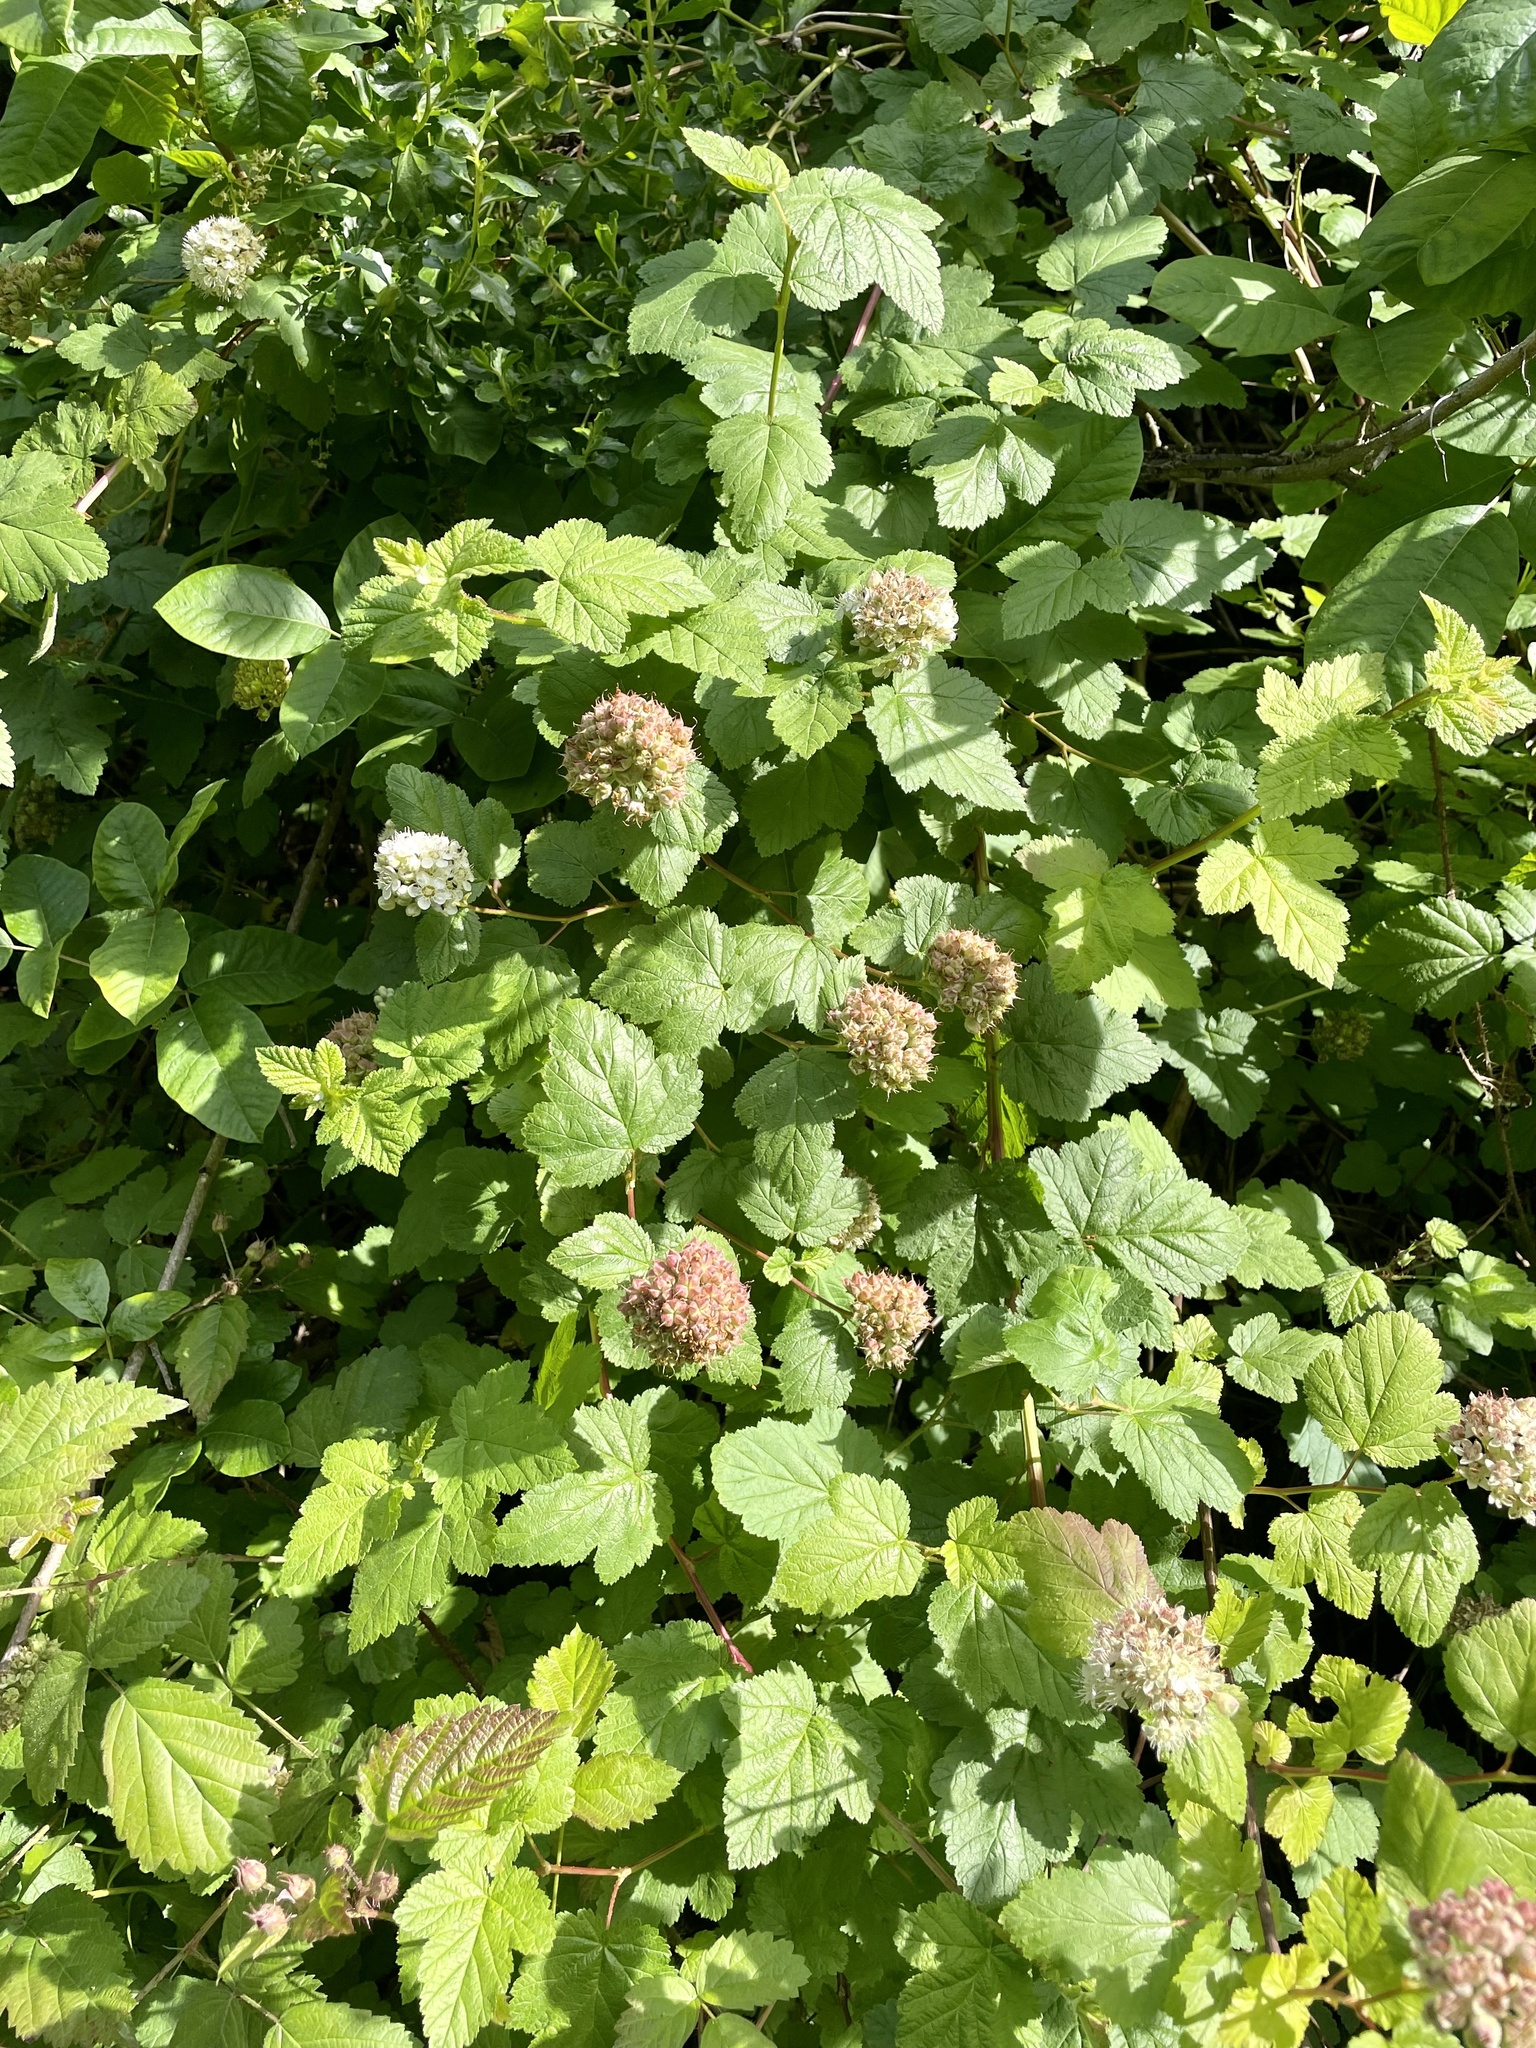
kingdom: Plantae
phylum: Tracheophyta
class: Magnoliopsida
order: Rosales
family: Rosaceae
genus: Physocarpus
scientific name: Physocarpus capitatus
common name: Pacific ninebark
